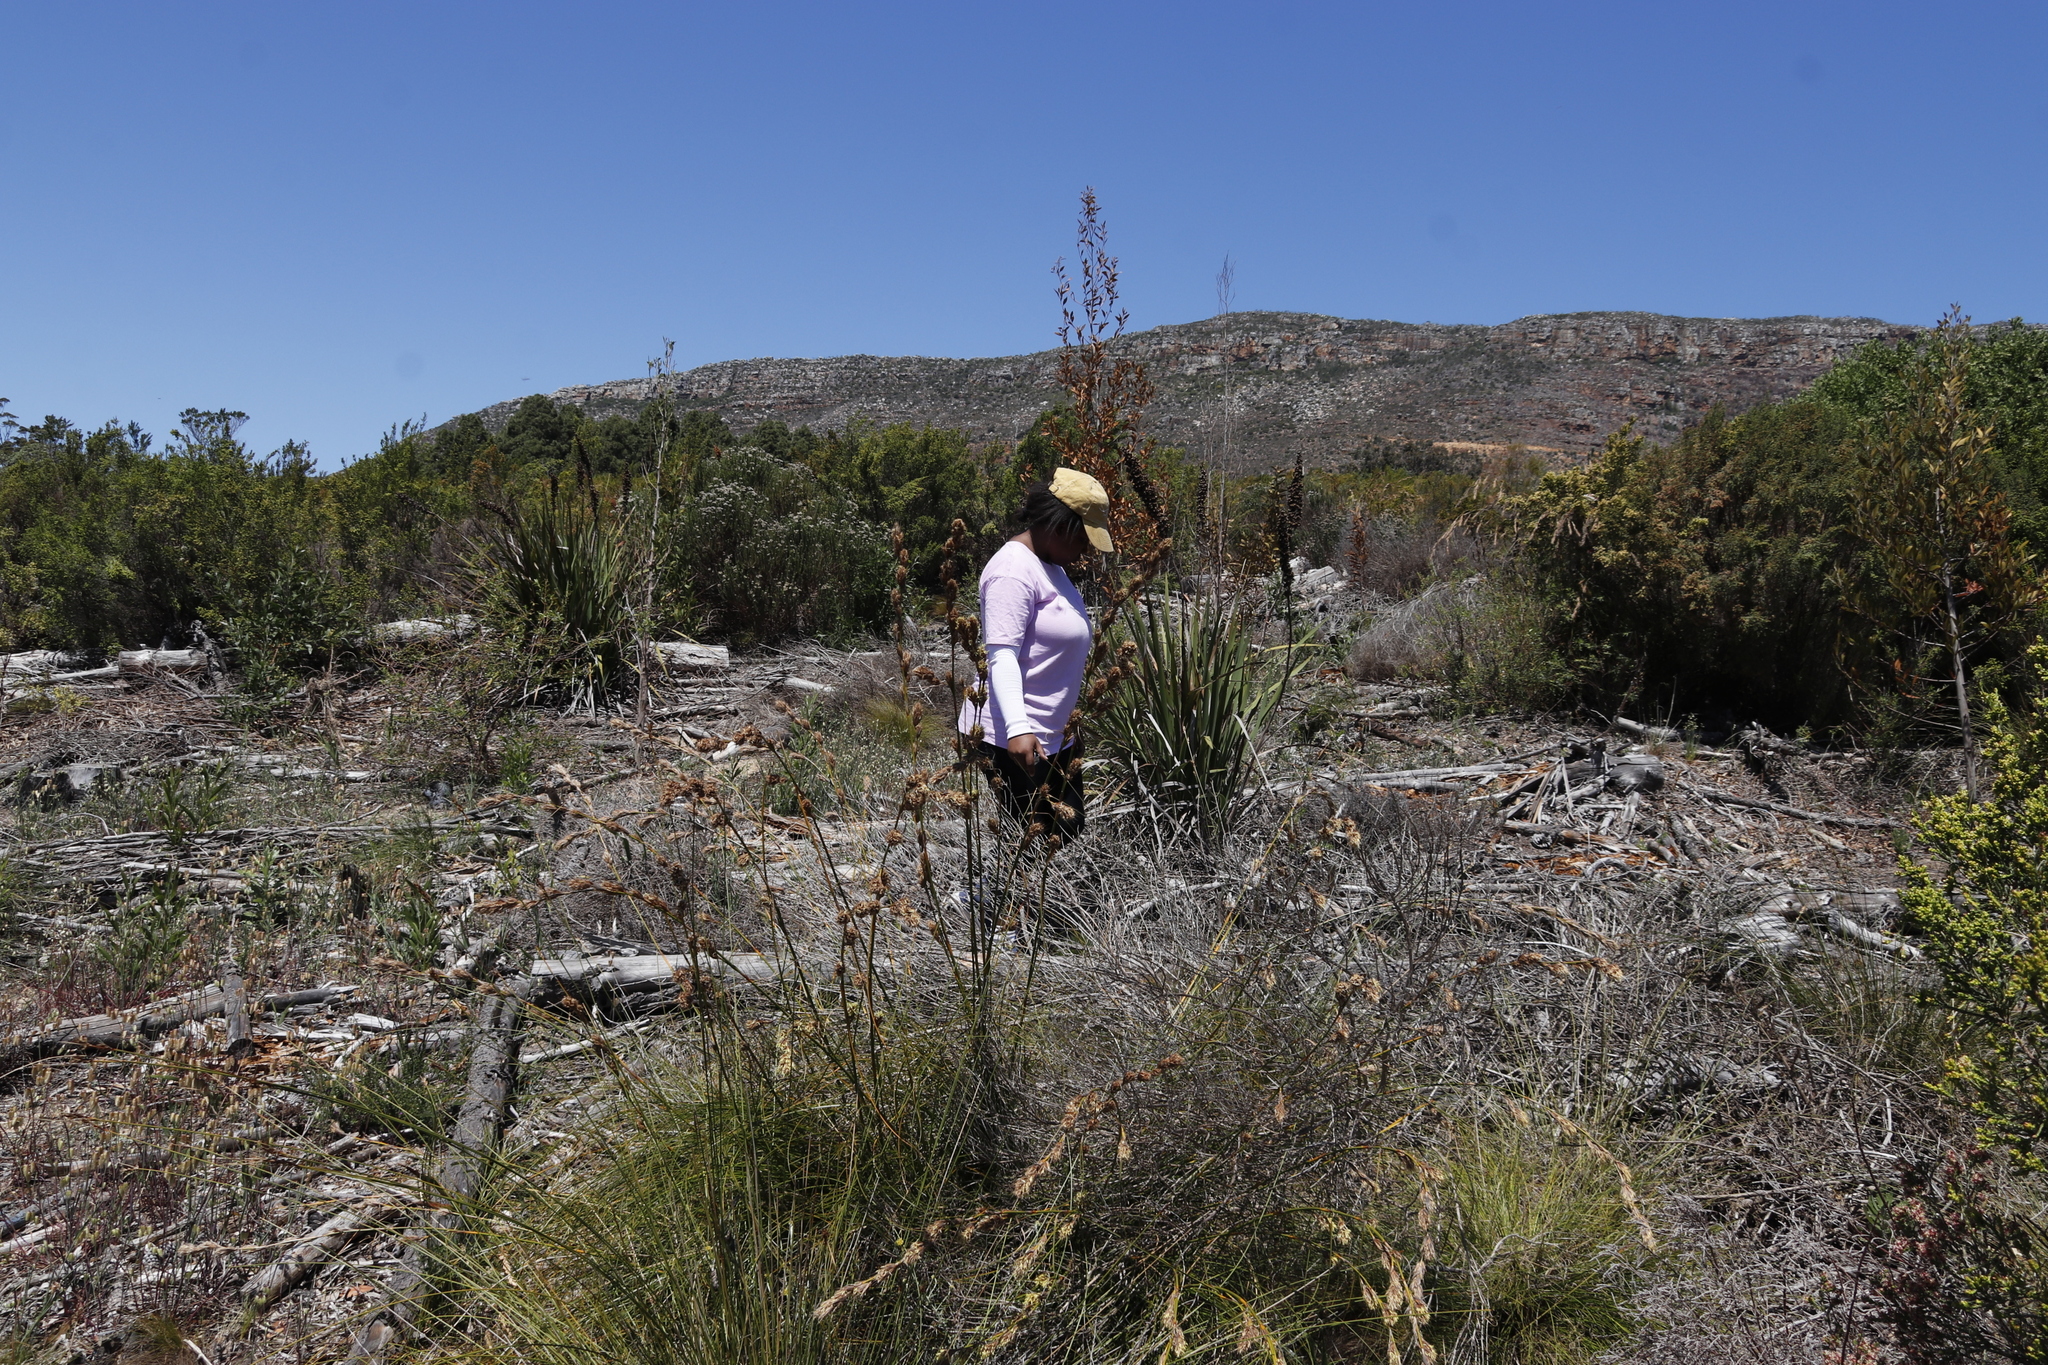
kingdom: Plantae
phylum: Tracheophyta
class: Liliopsida
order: Asparagales
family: Iridaceae
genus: Aristea
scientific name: Aristea capitata
